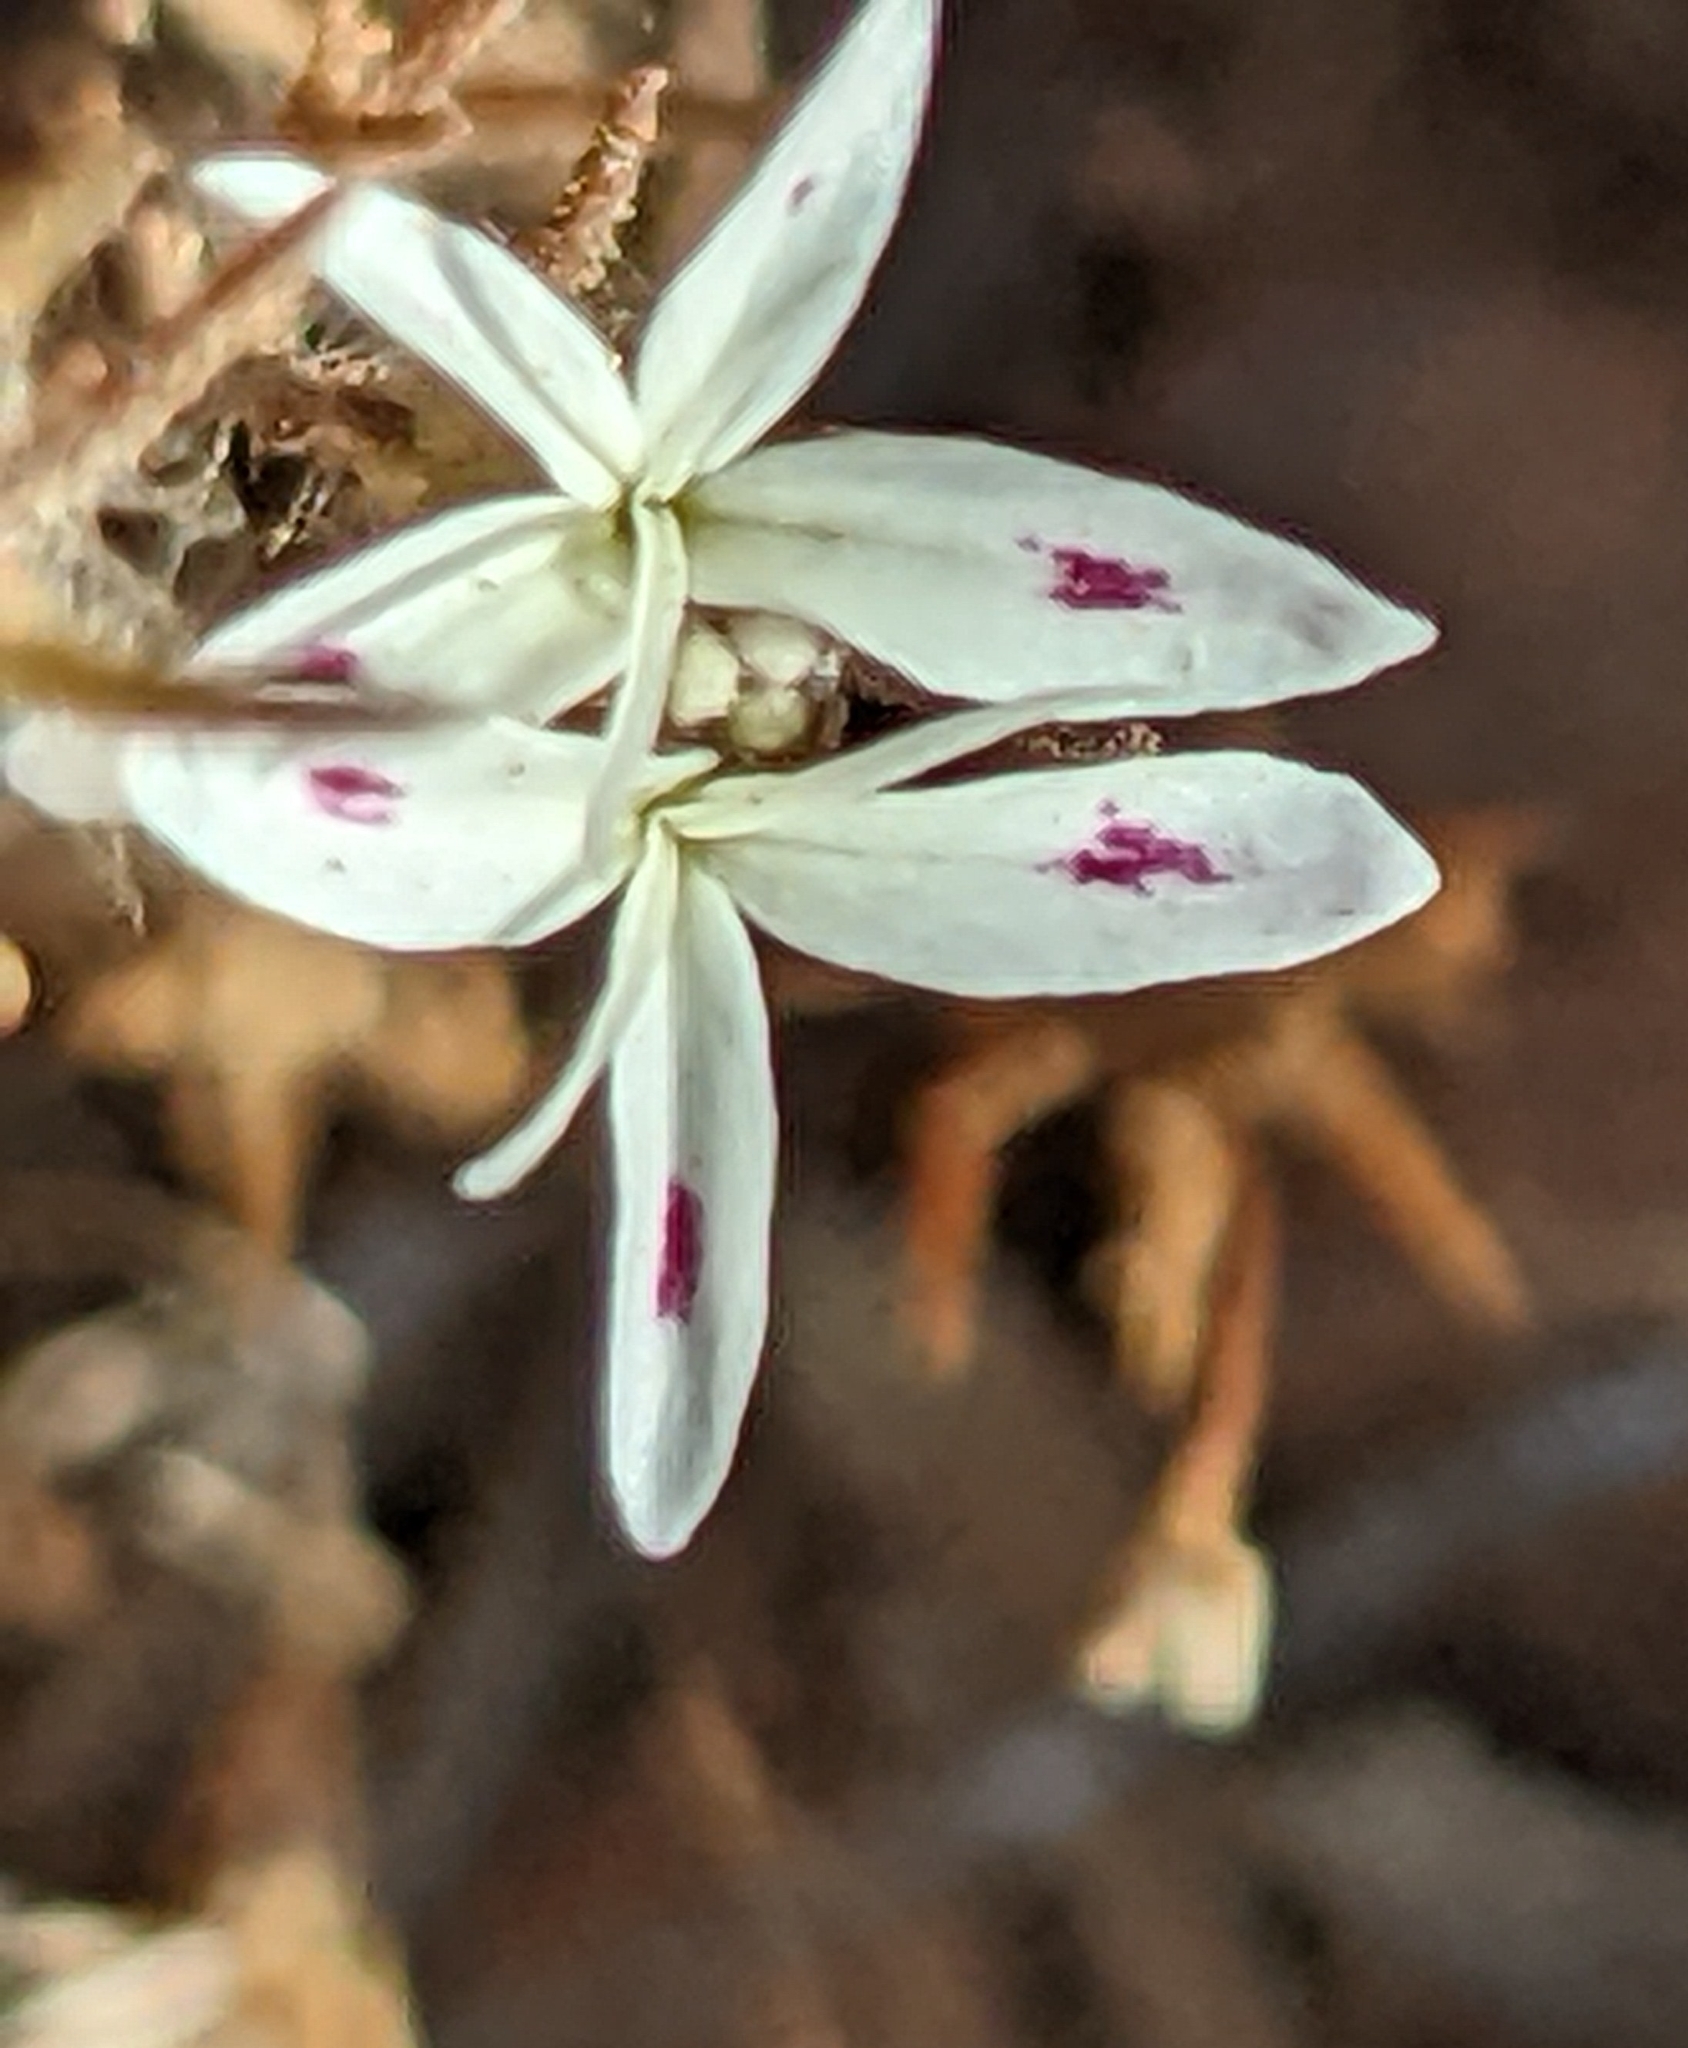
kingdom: Plantae
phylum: Tracheophyta
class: Magnoliopsida
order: Asterales
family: Asteraceae
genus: Osmadenia
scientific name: Osmadenia tenella
